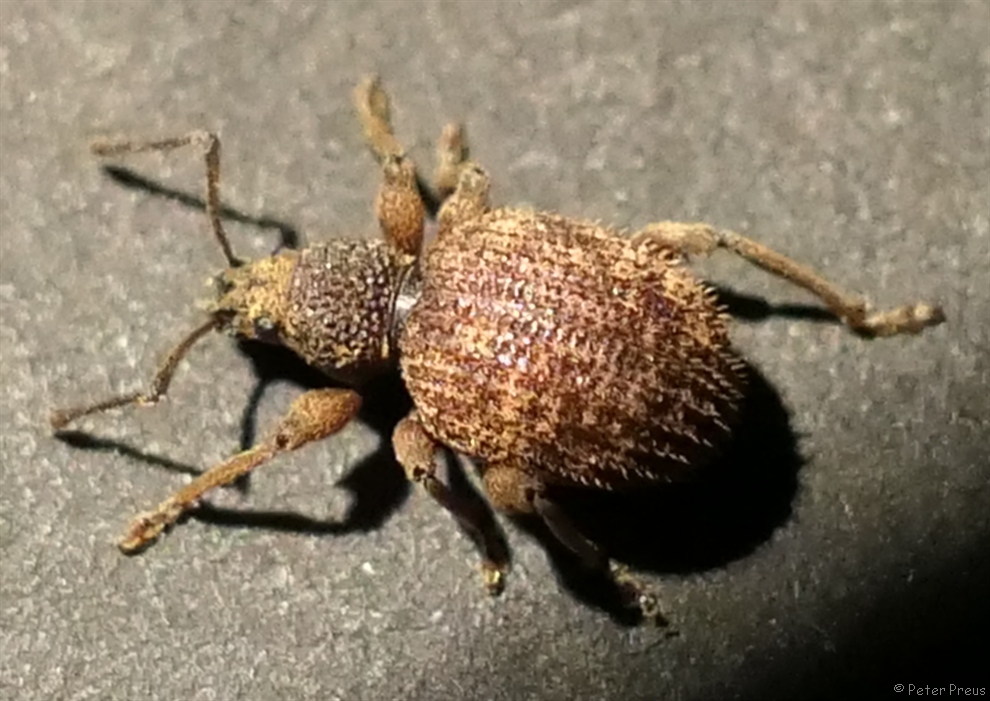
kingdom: Animalia
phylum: Arthropoda
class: Insecta
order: Coleoptera
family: Curculionidae
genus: Otiorhynchus
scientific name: Otiorhynchus crataegi
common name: Privet weevil
